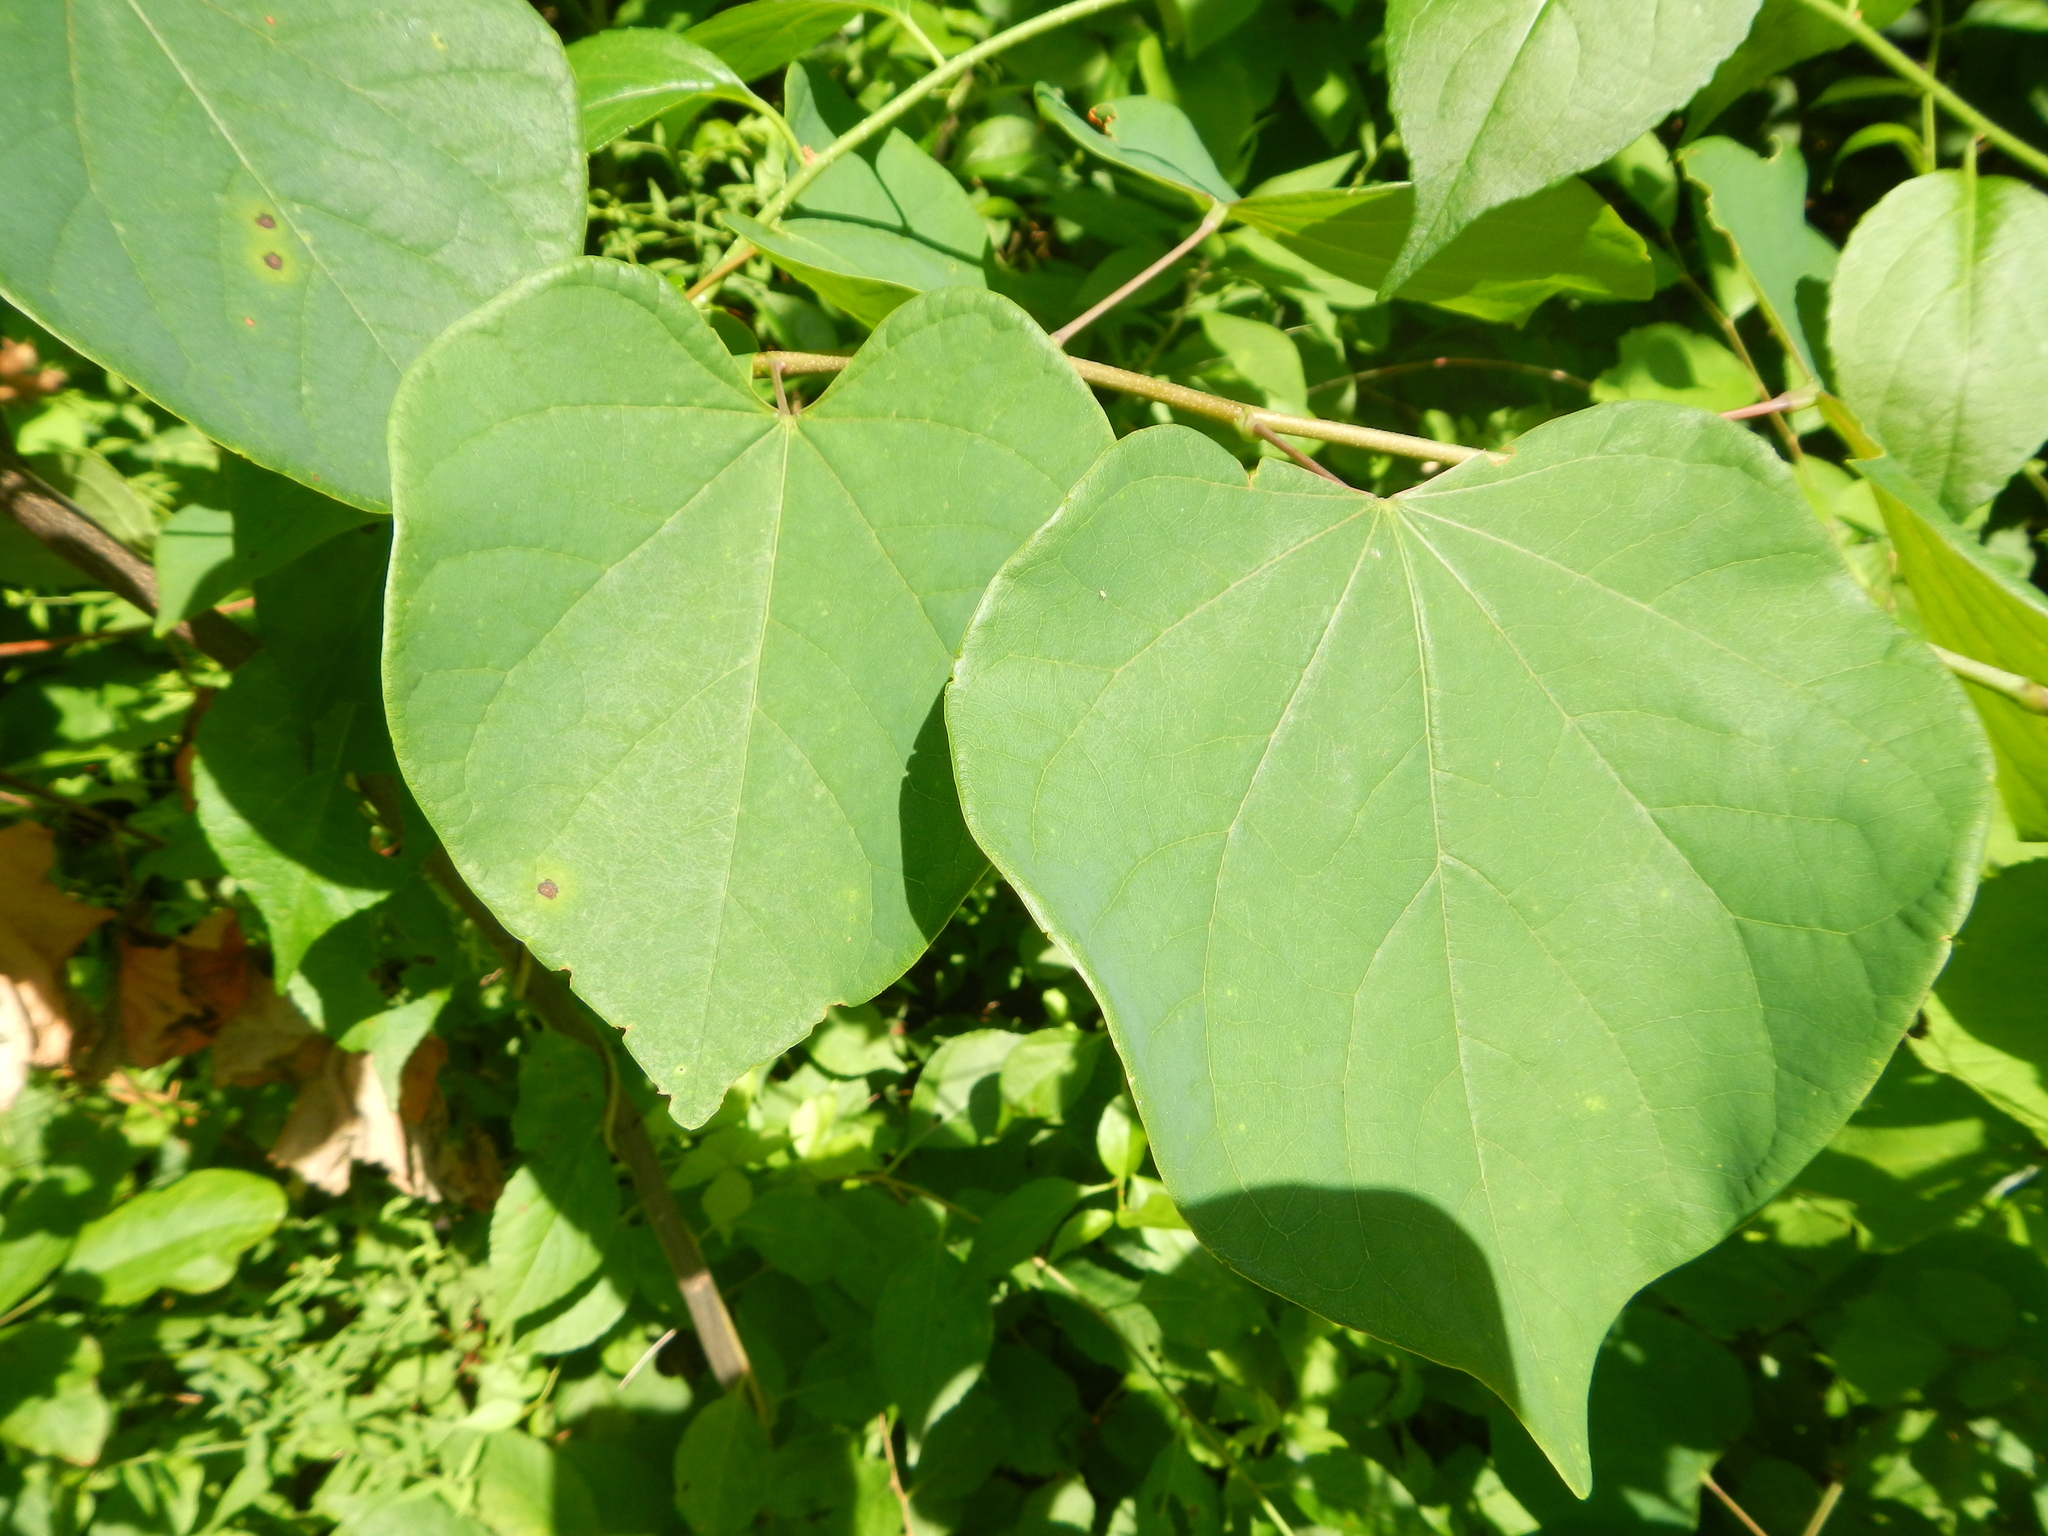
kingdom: Plantae
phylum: Tracheophyta
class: Magnoliopsida
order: Fabales
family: Fabaceae
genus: Cercis
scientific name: Cercis canadensis
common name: Eastern redbud
